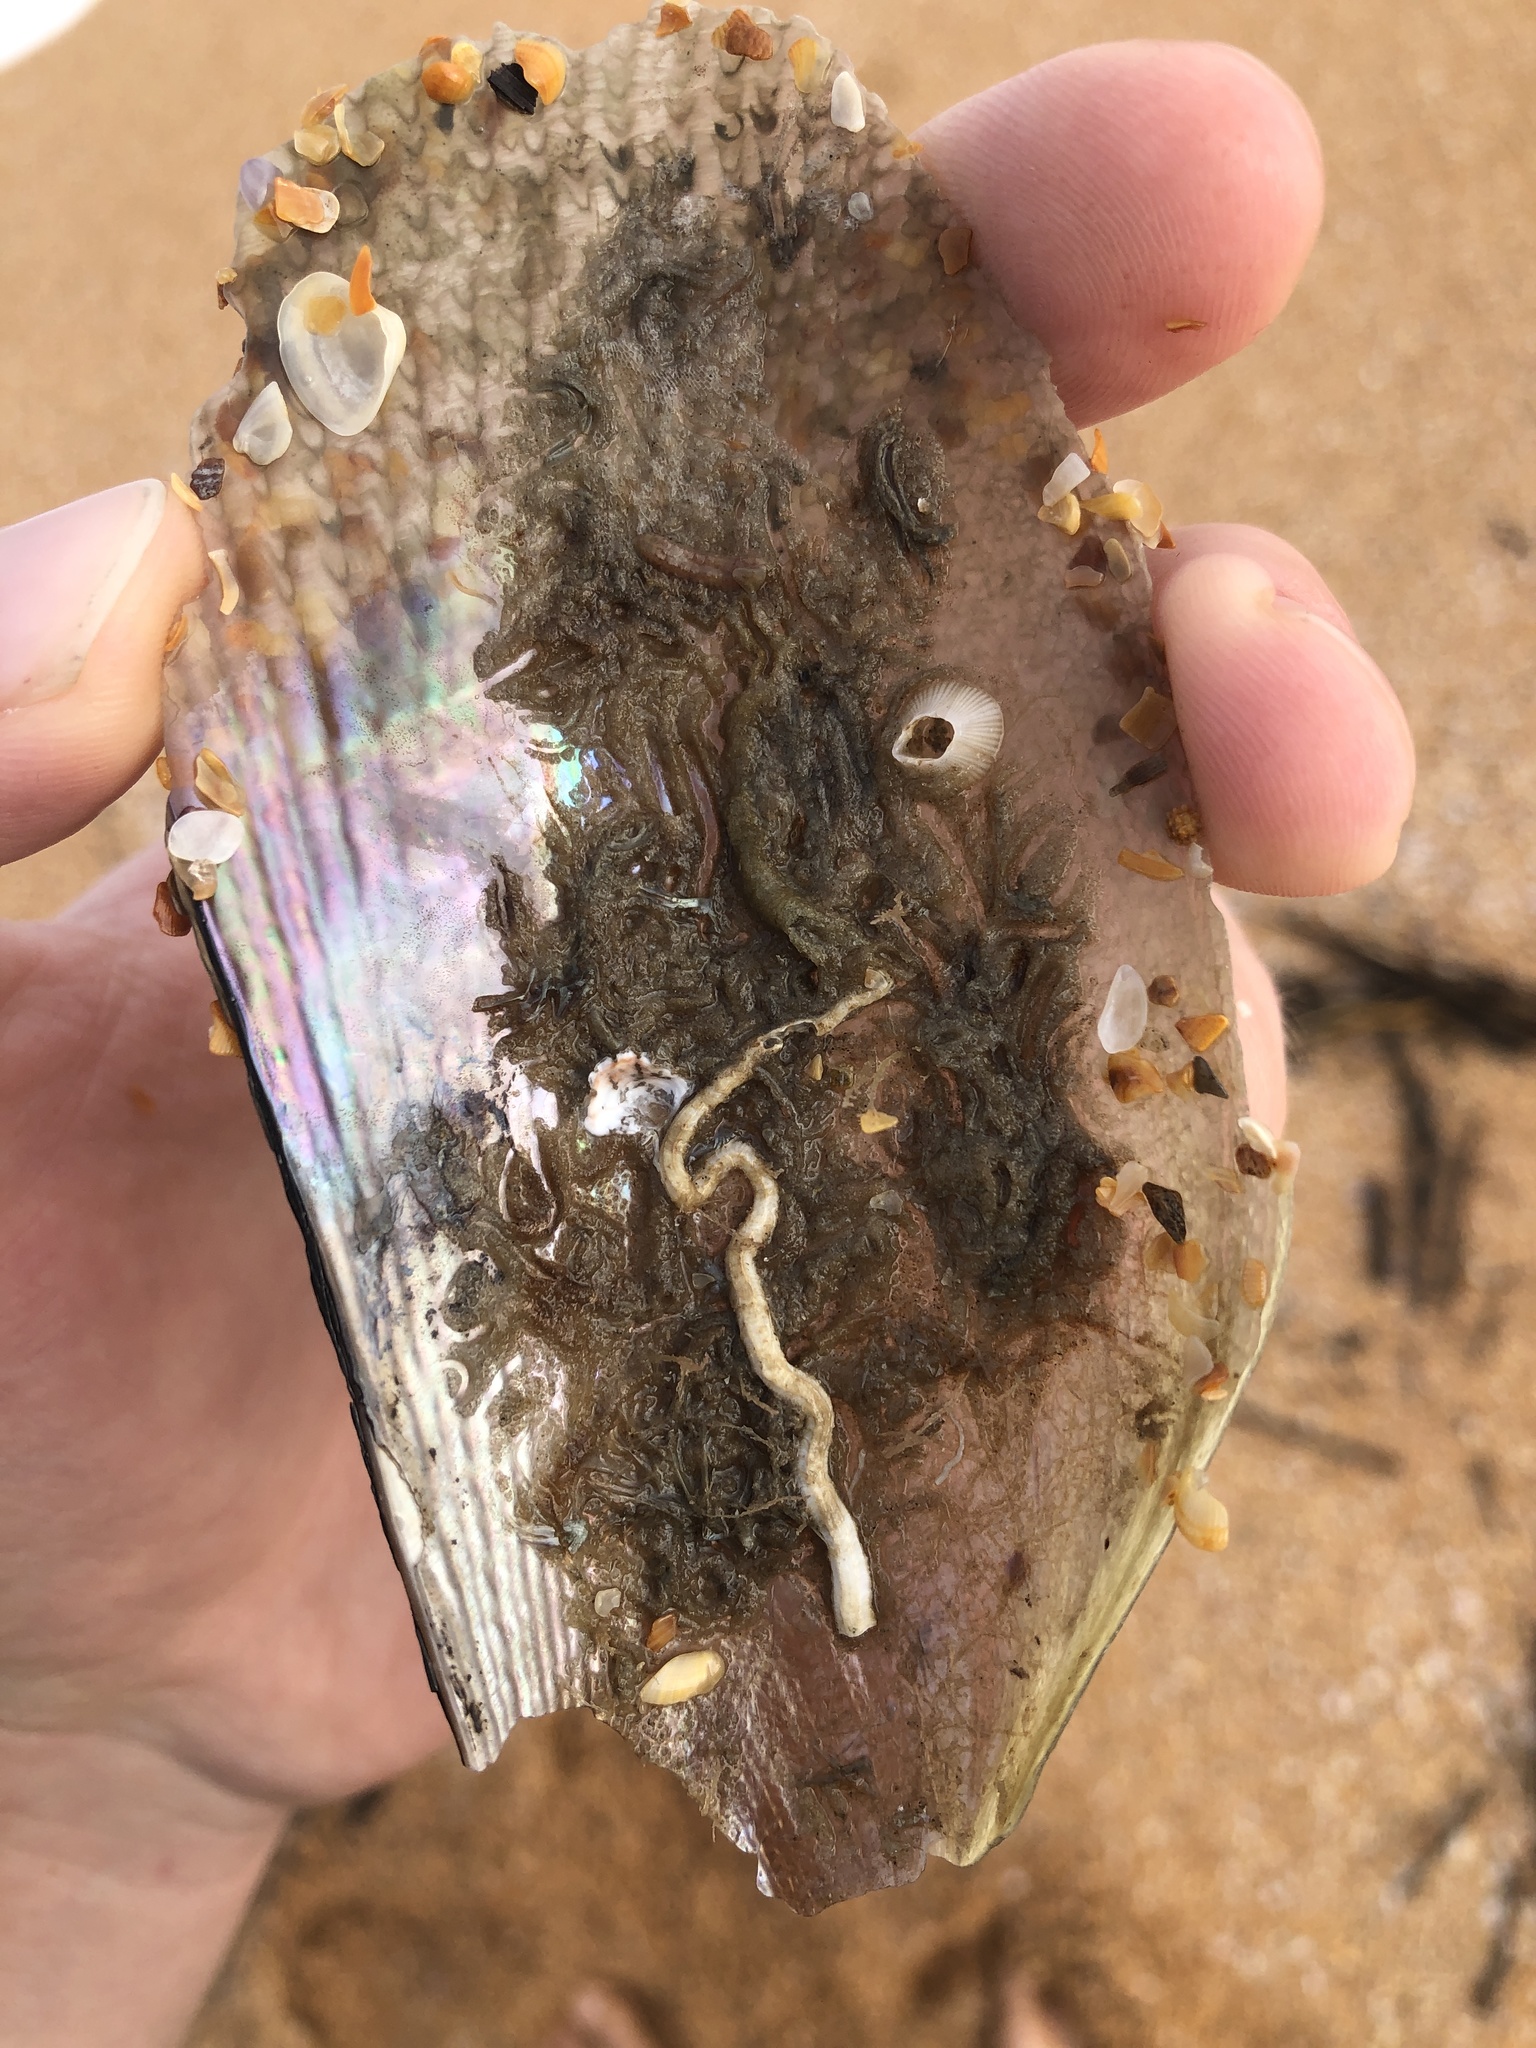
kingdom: Animalia
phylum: Mollusca
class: Bivalvia
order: Ostreida
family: Pinnidae
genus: Atrina
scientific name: Atrina serrata
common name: Saw-toothed penshell
